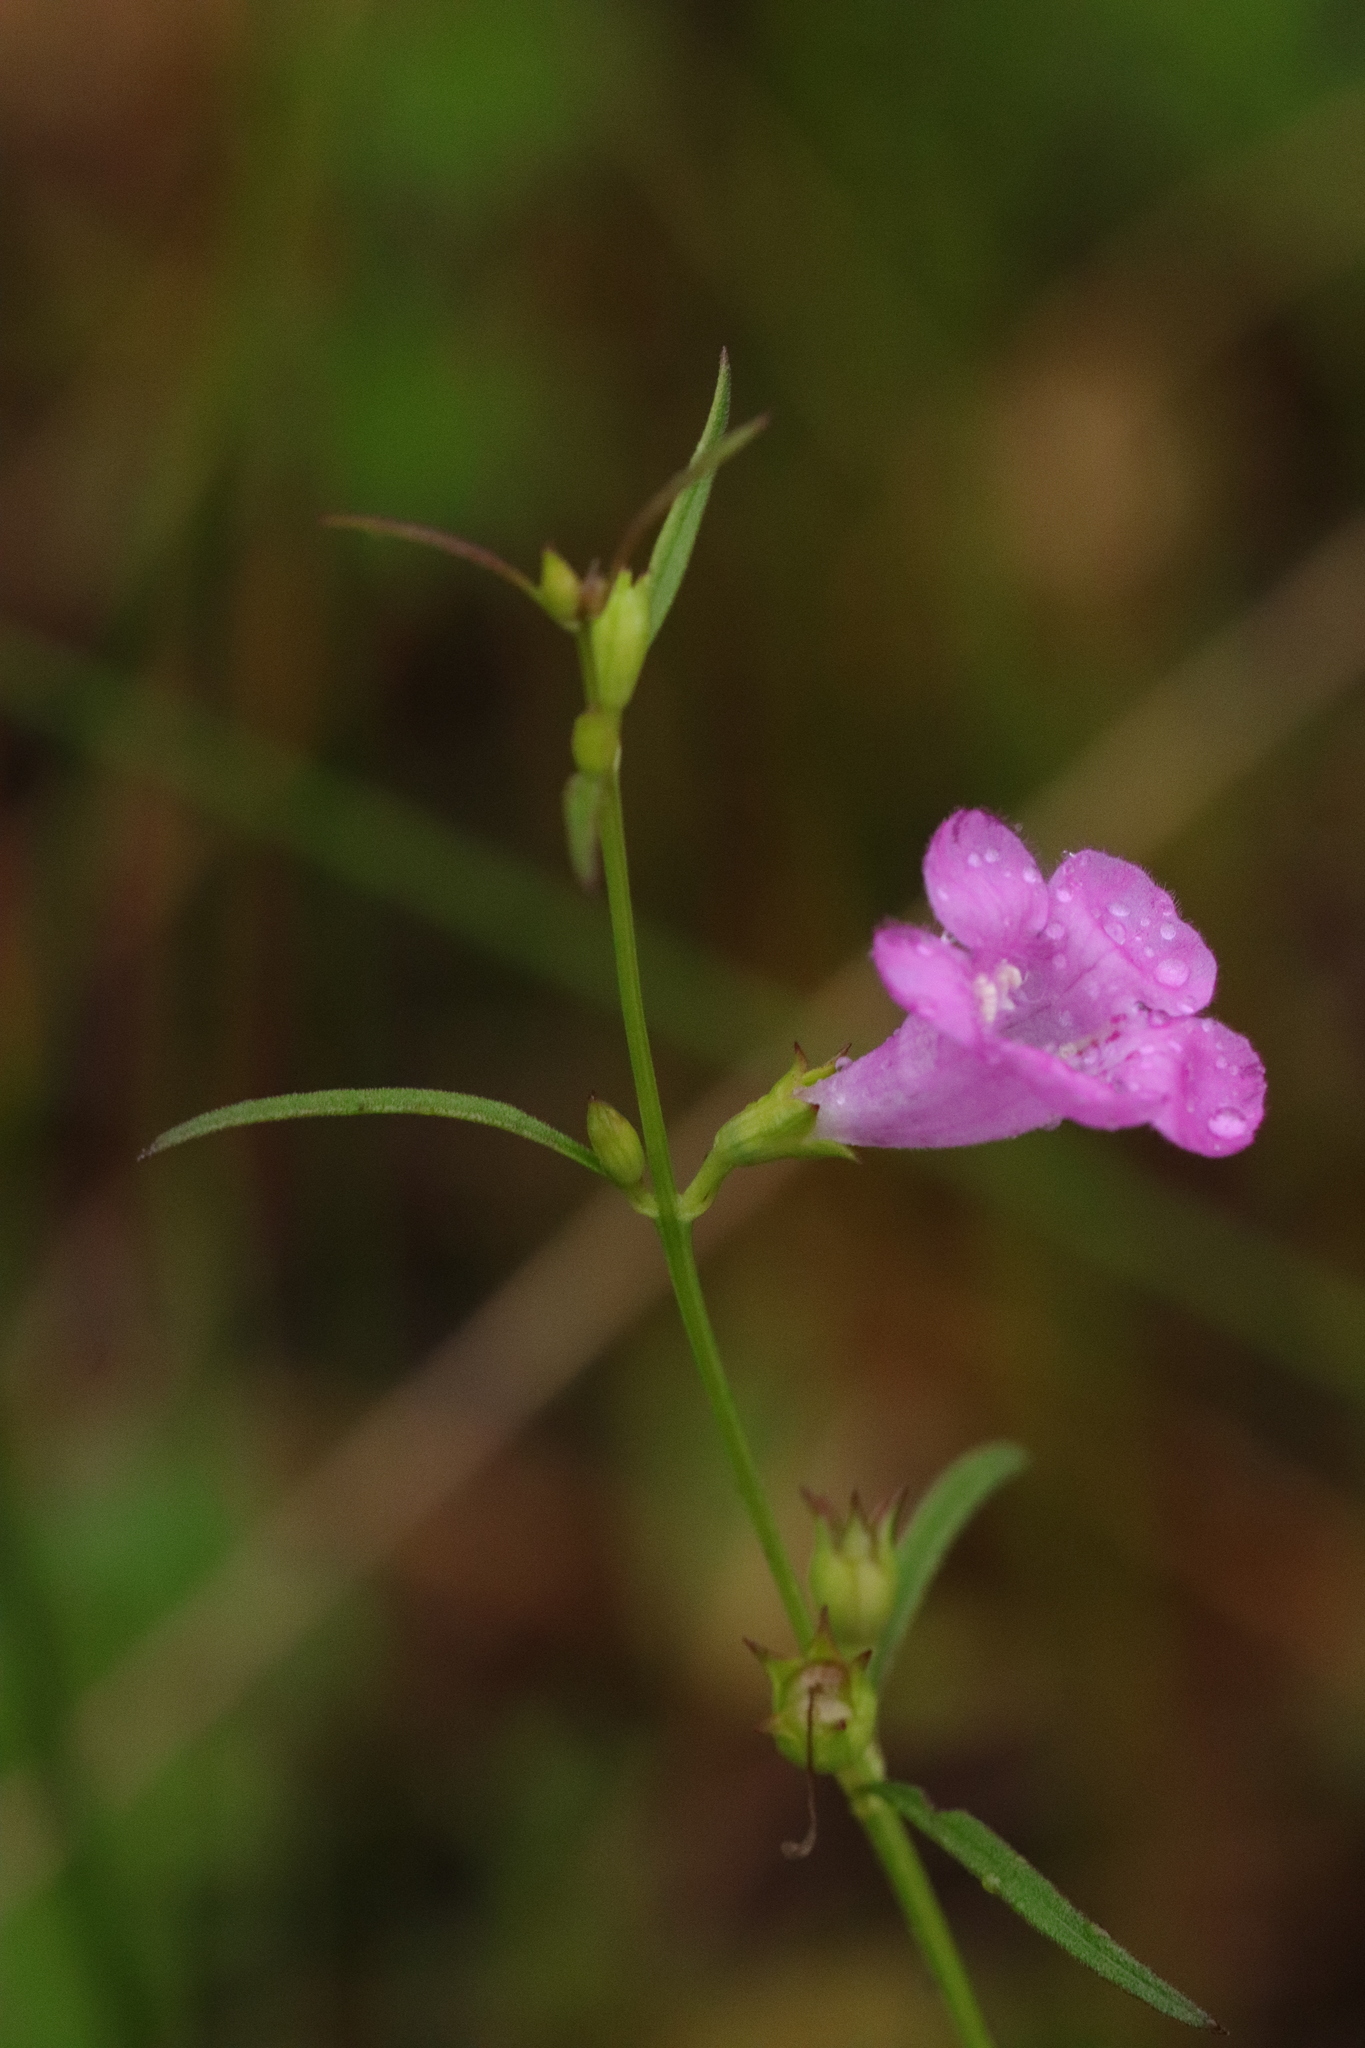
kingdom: Plantae
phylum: Tracheophyta
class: Magnoliopsida
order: Lamiales
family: Orobanchaceae
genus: Agalinis
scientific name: Agalinis purpurea
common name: Purple false foxglove
